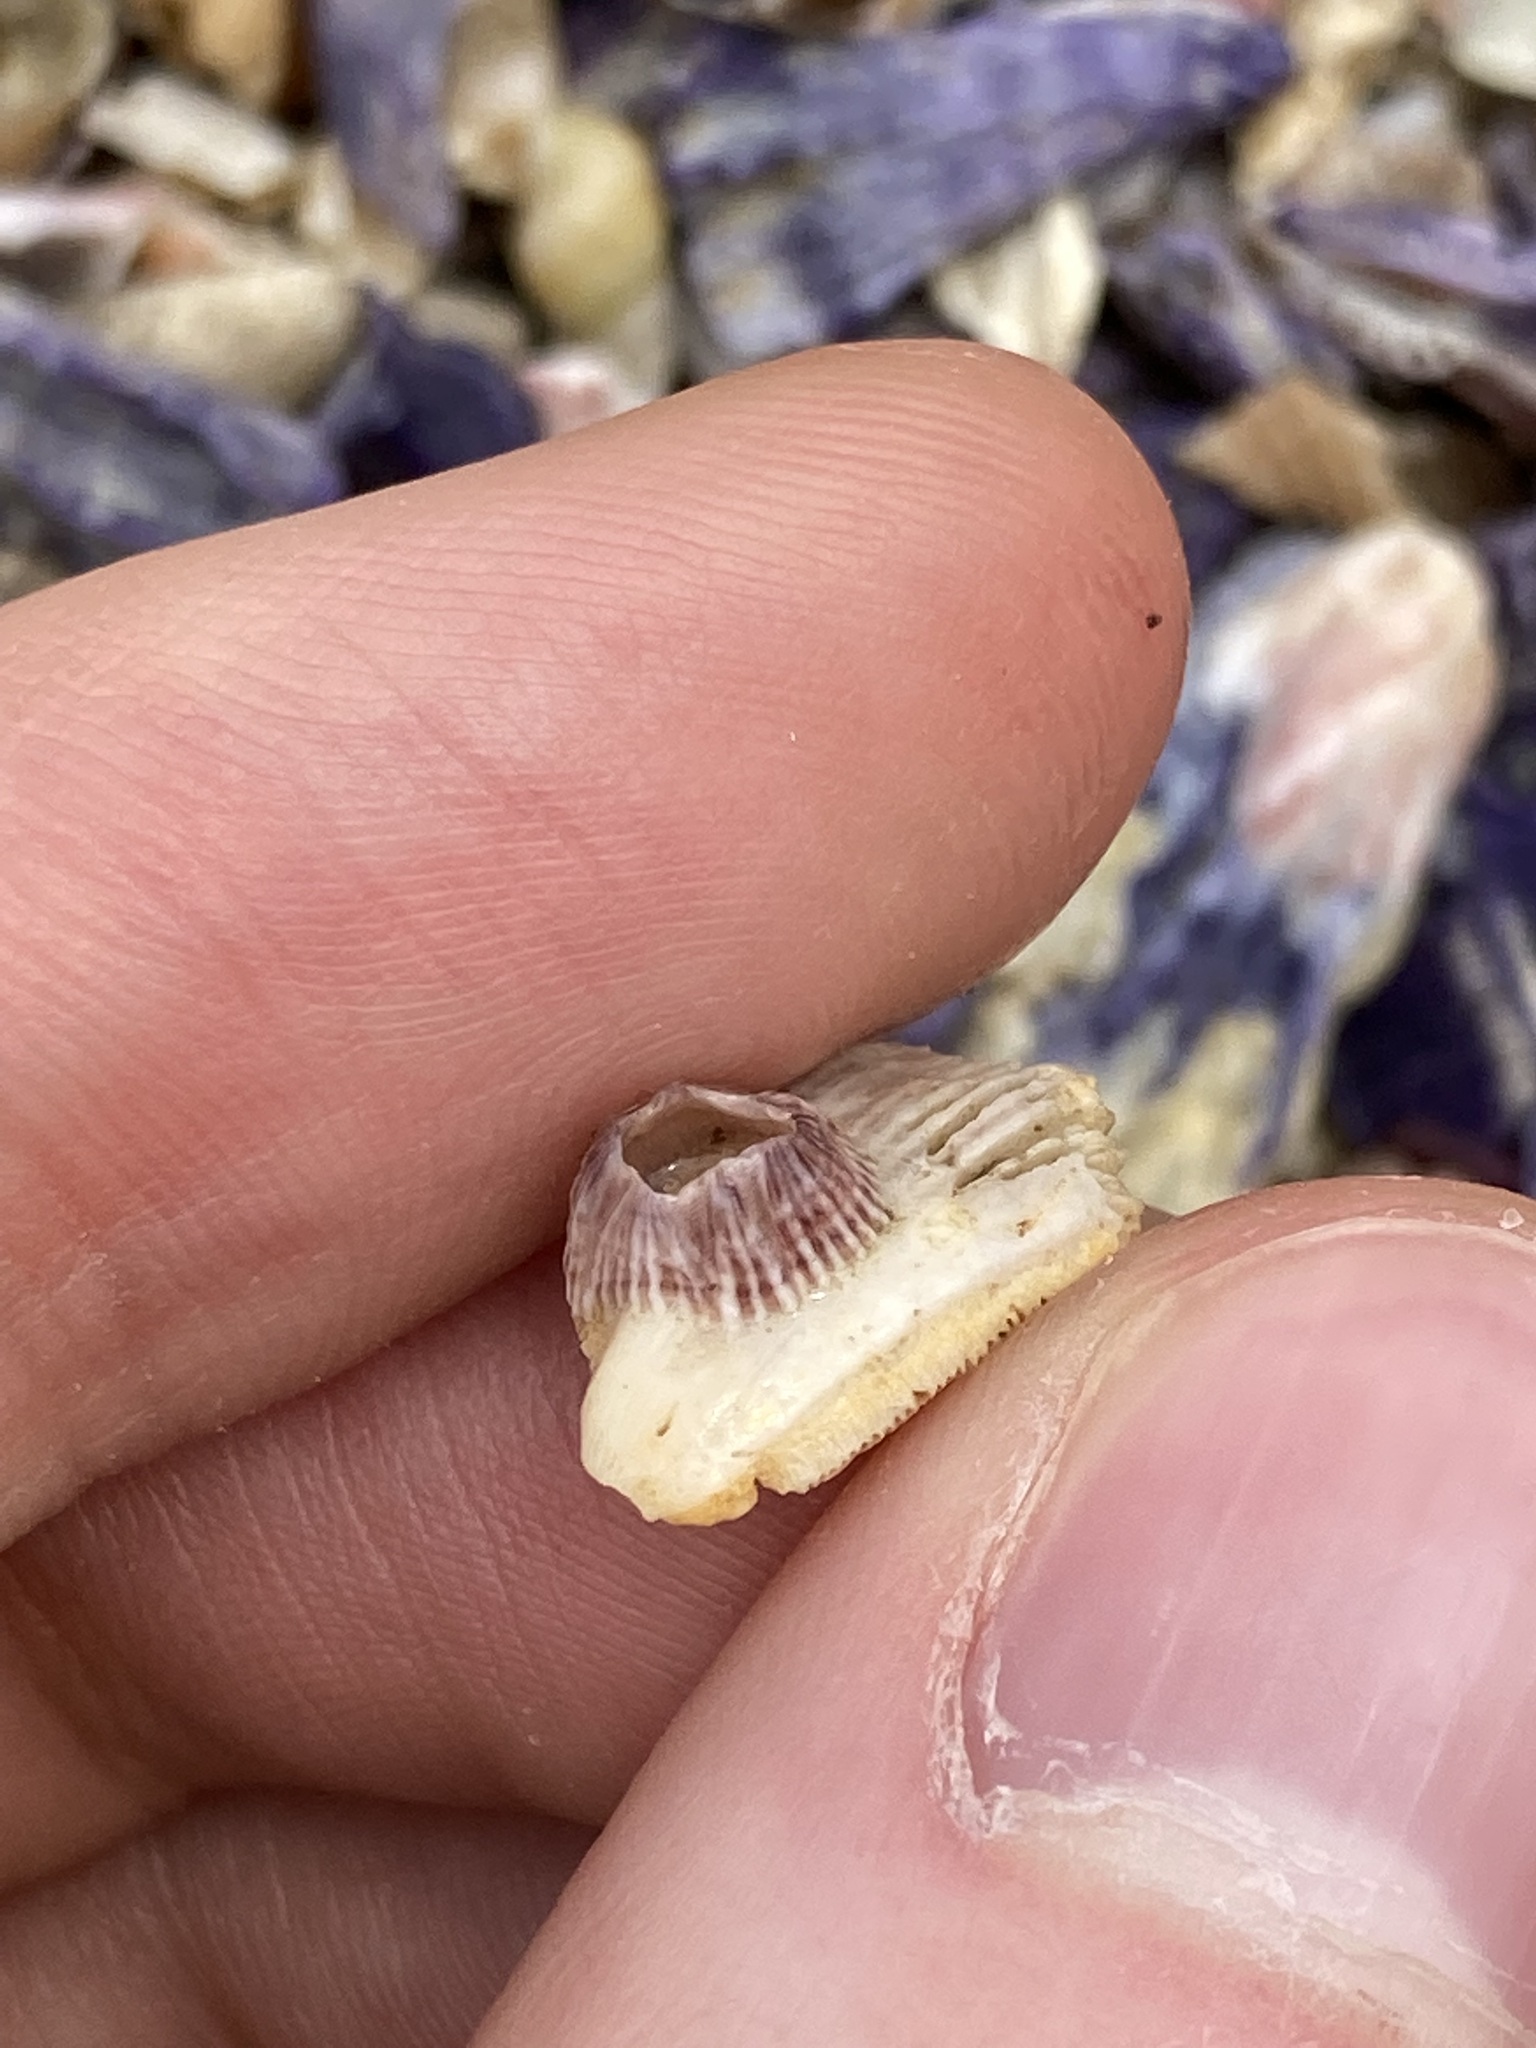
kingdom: Animalia
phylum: Arthropoda
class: Maxillopoda
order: Sessilia
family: Balanidae
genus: Balanus
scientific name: Balanus trigonus
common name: Triangle barnacle
